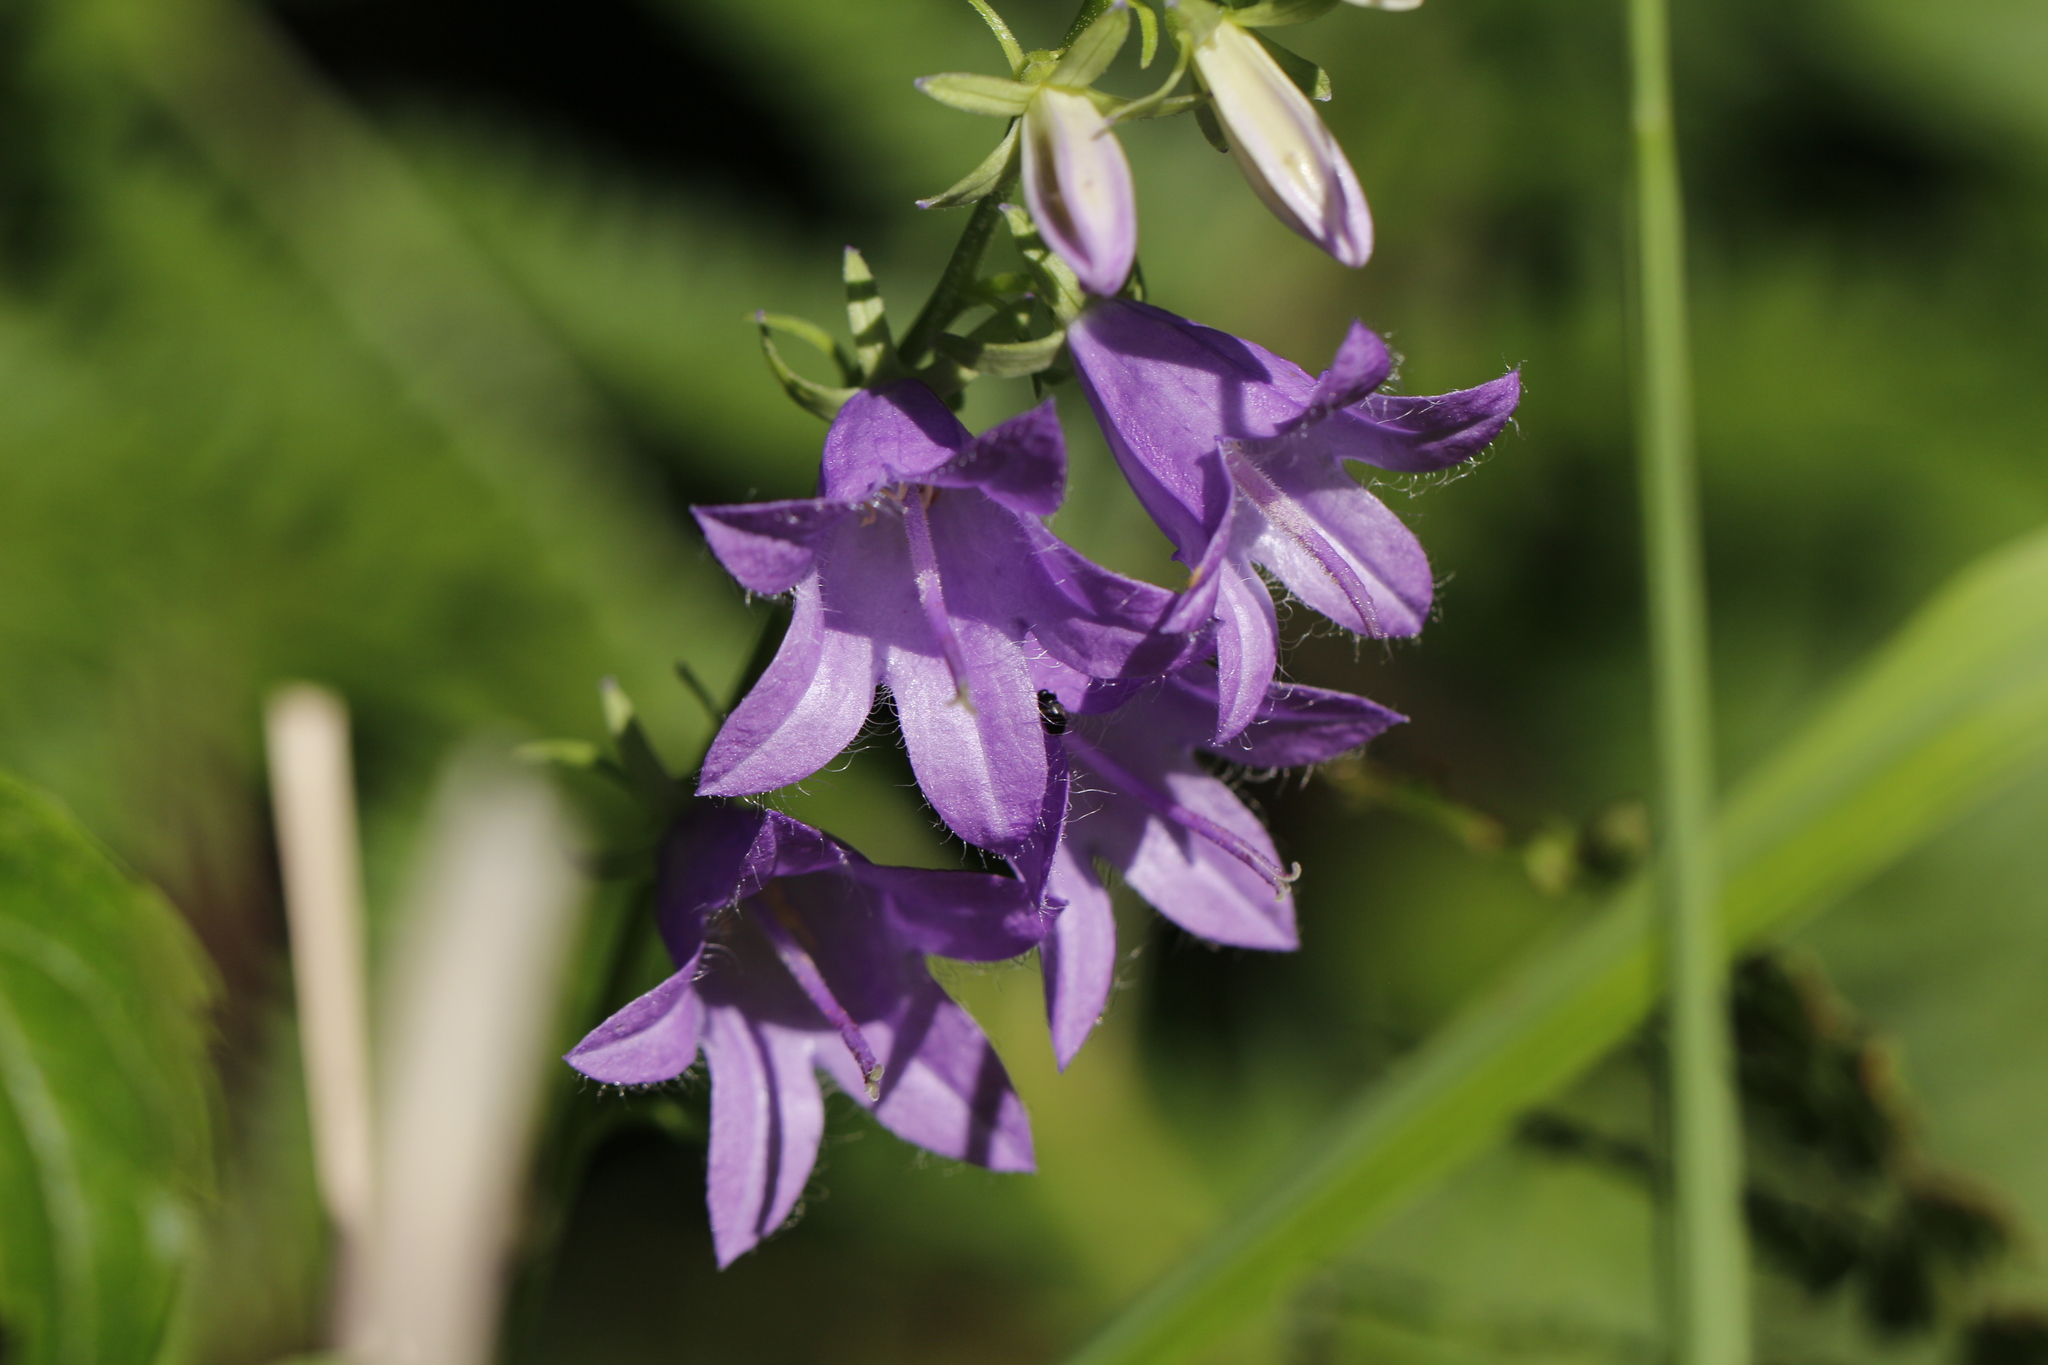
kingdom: Plantae
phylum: Tracheophyta
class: Magnoliopsida
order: Asterales
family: Campanulaceae
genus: Campanula
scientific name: Campanula rapunculoides
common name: Creeping bellflower
